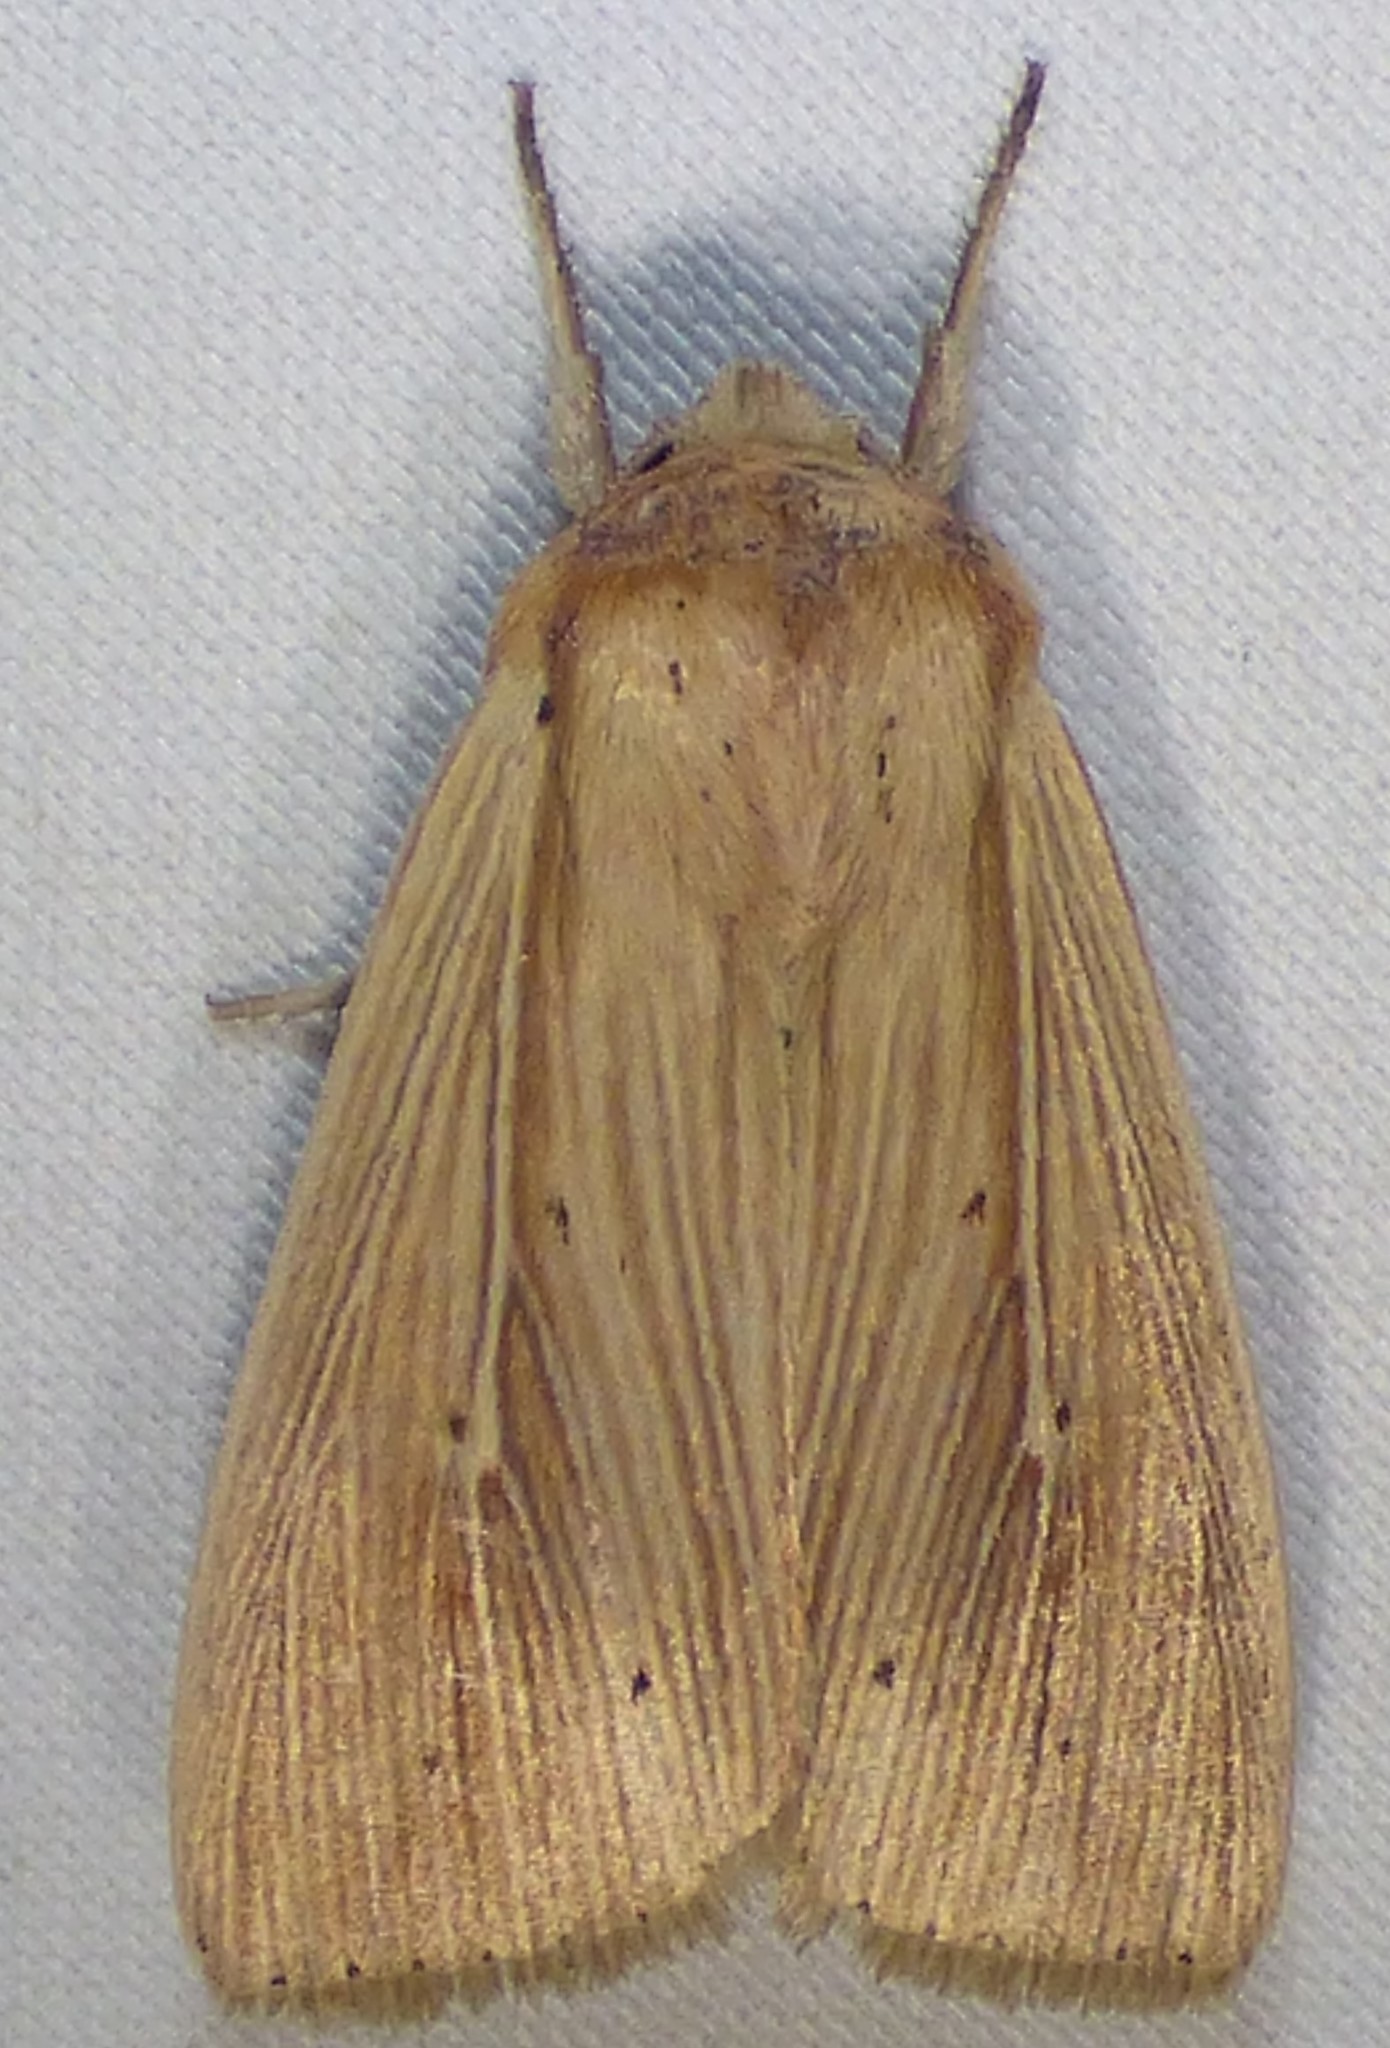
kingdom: Animalia
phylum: Arthropoda
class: Insecta
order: Lepidoptera
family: Noctuidae
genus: Leucania
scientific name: Leucania adjuta
